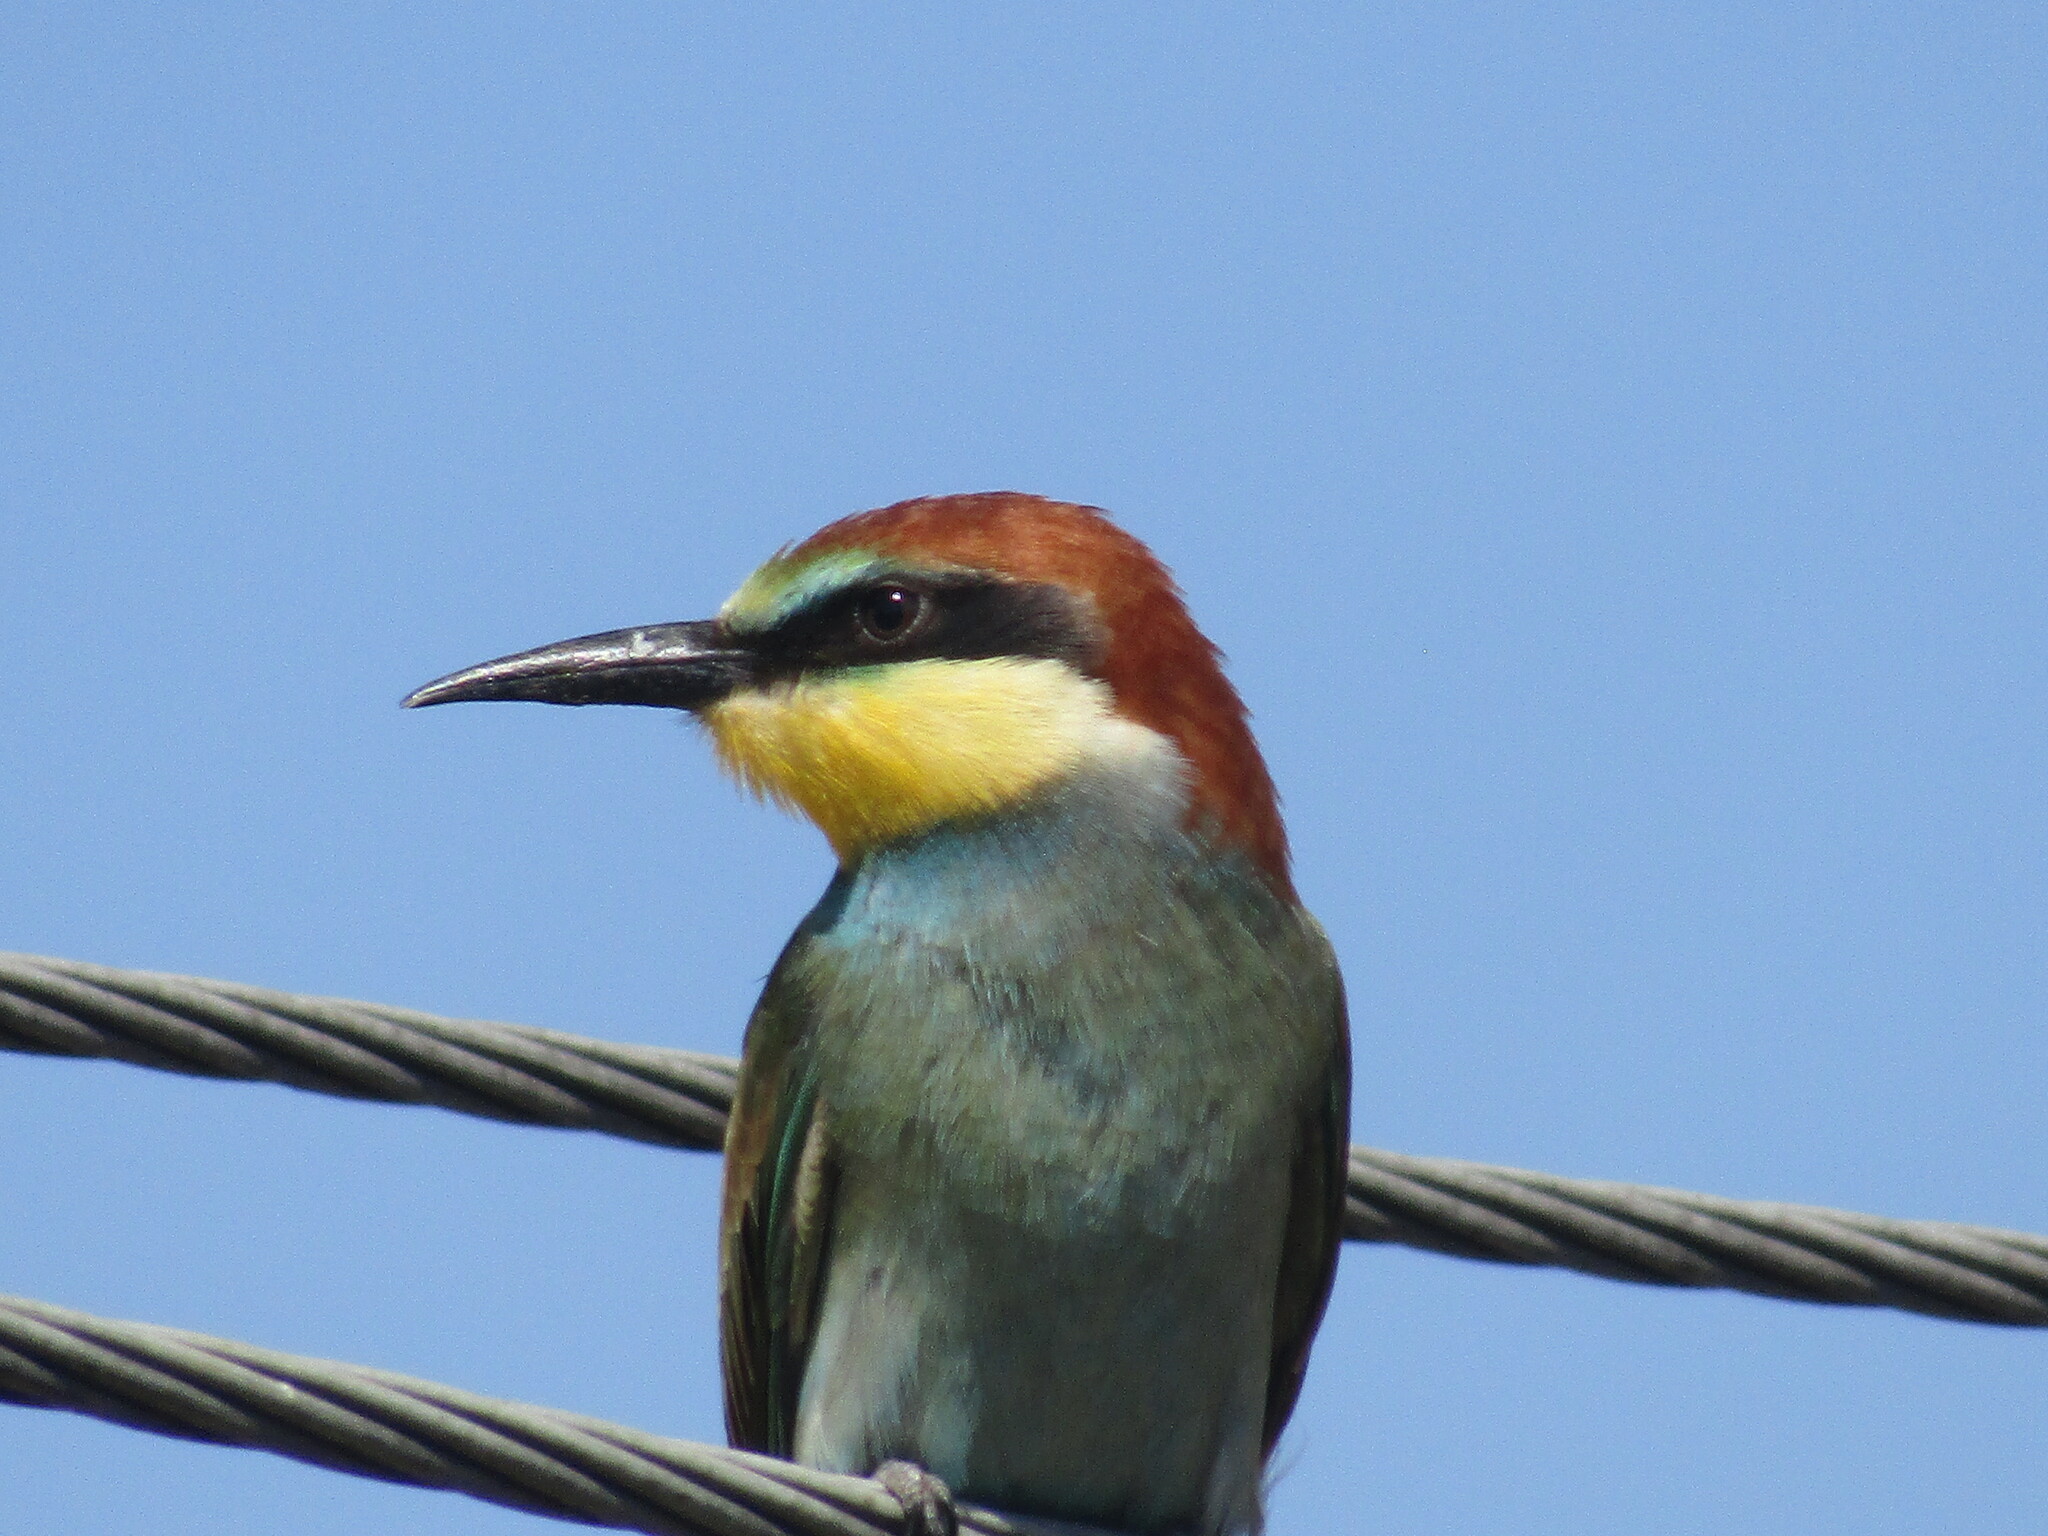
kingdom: Animalia
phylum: Chordata
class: Aves
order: Coraciiformes
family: Meropidae
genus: Merops
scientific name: Merops apiaster
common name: European bee-eater
